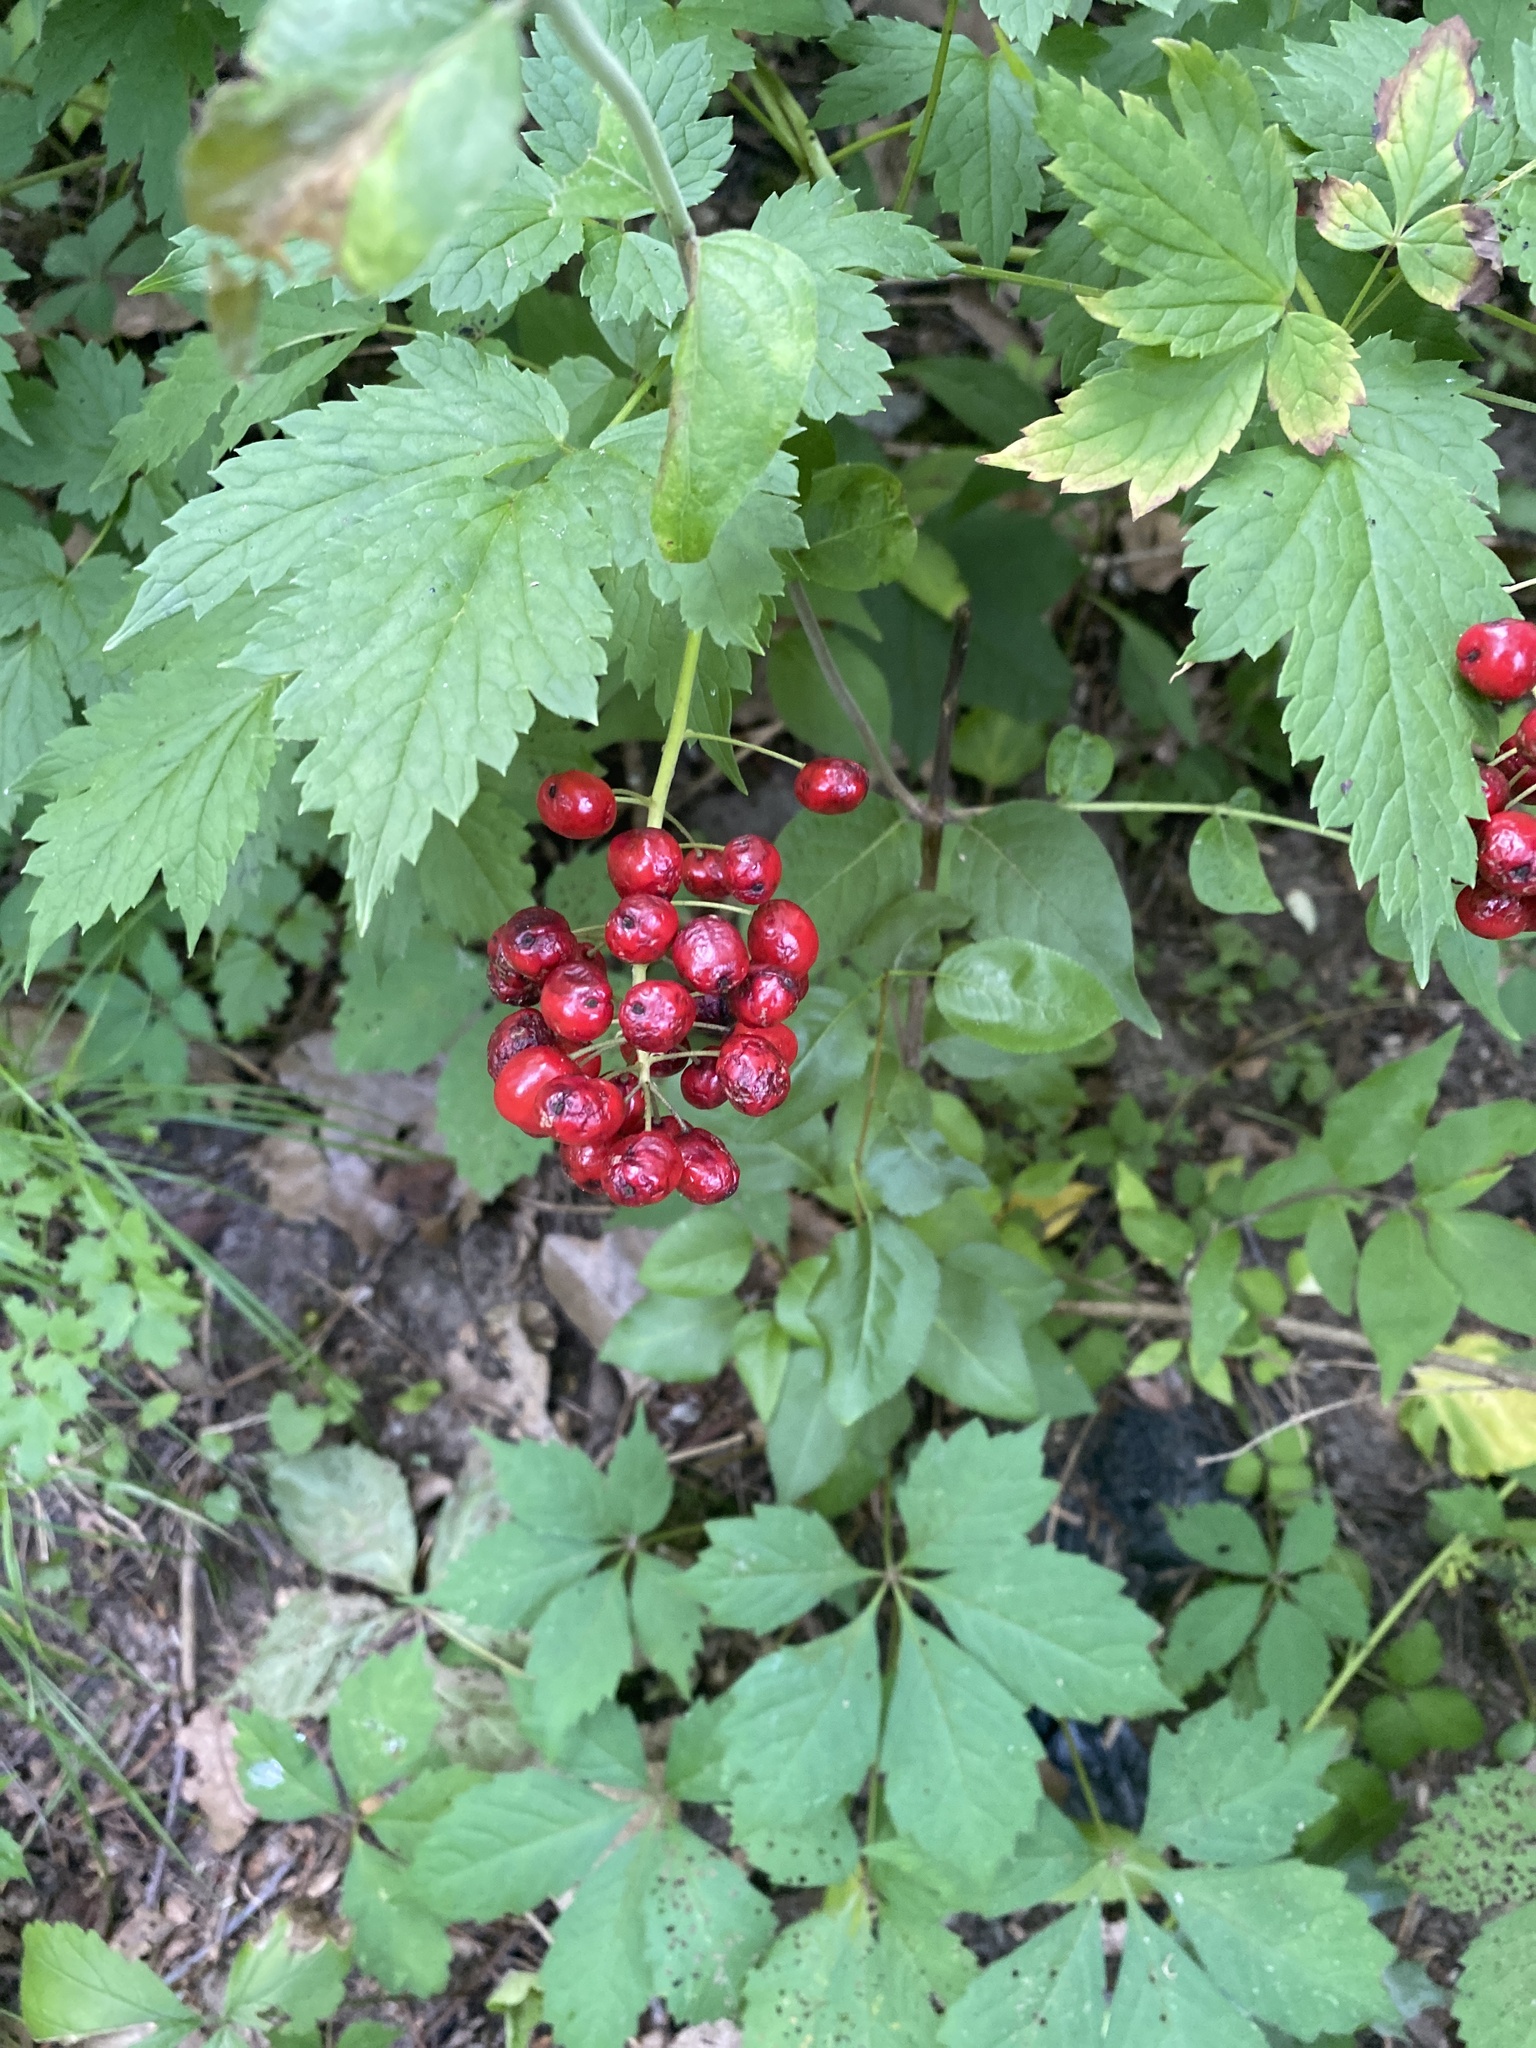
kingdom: Plantae
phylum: Tracheophyta
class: Magnoliopsida
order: Ranunculales
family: Ranunculaceae
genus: Actaea
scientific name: Actaea rubra
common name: Red baneberry
